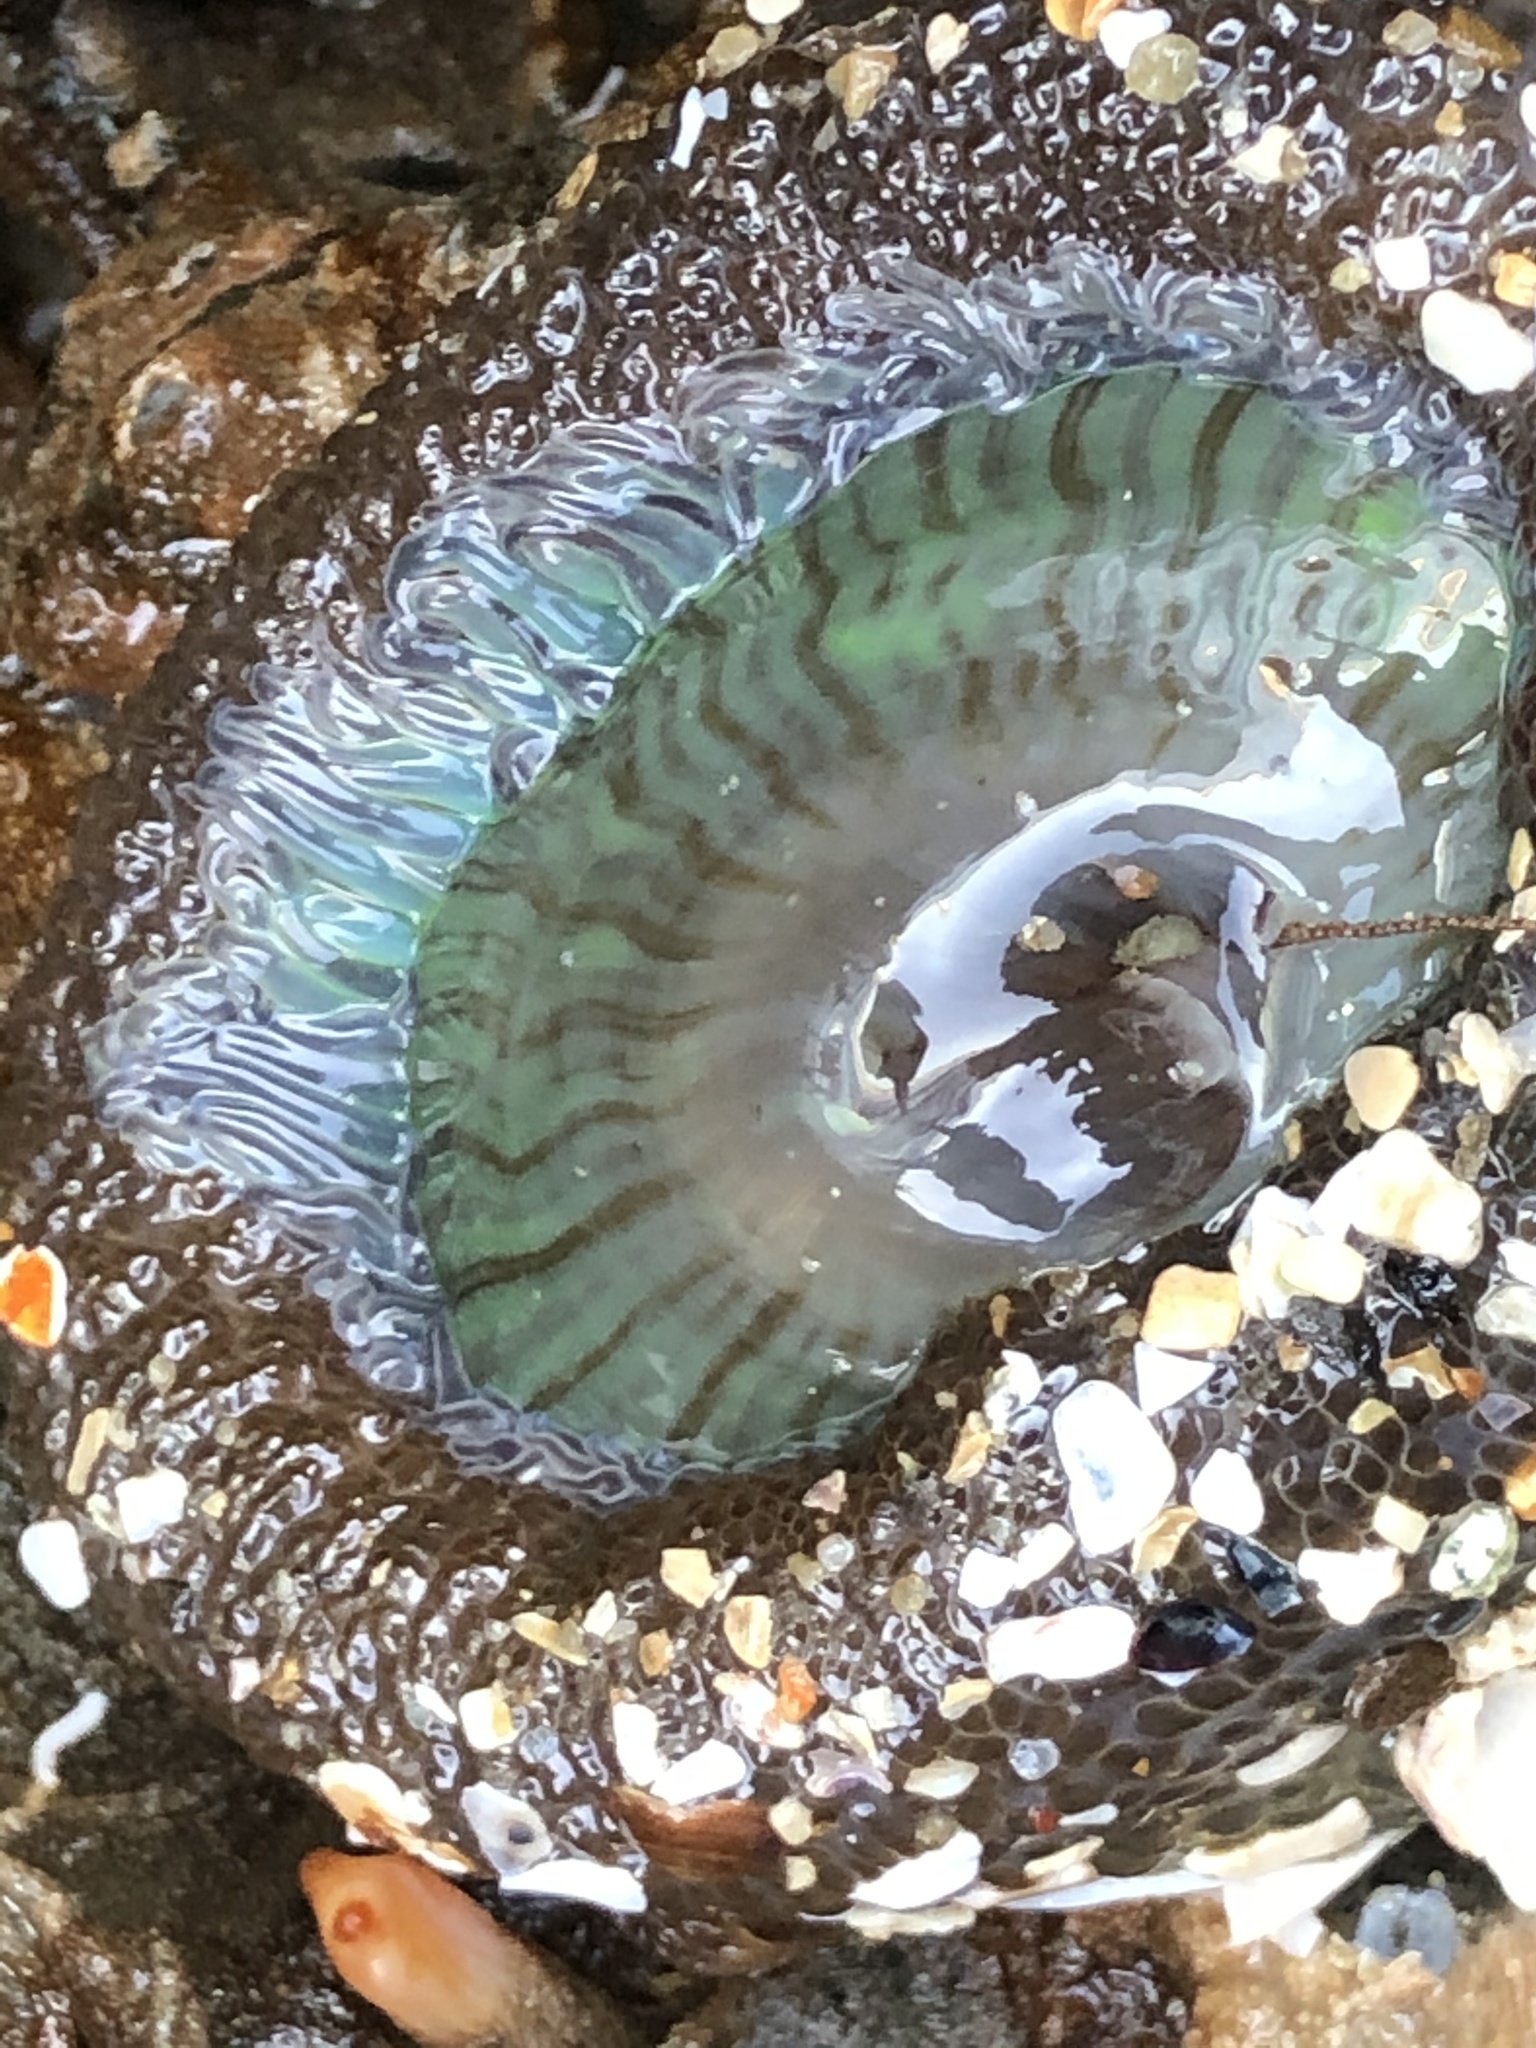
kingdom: Animalia
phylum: Cnidaria
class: Anthozoa
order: Actiniaria
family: Actiniidae
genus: Anthopleura
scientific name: Anthopleura sola
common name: Sun anemone
